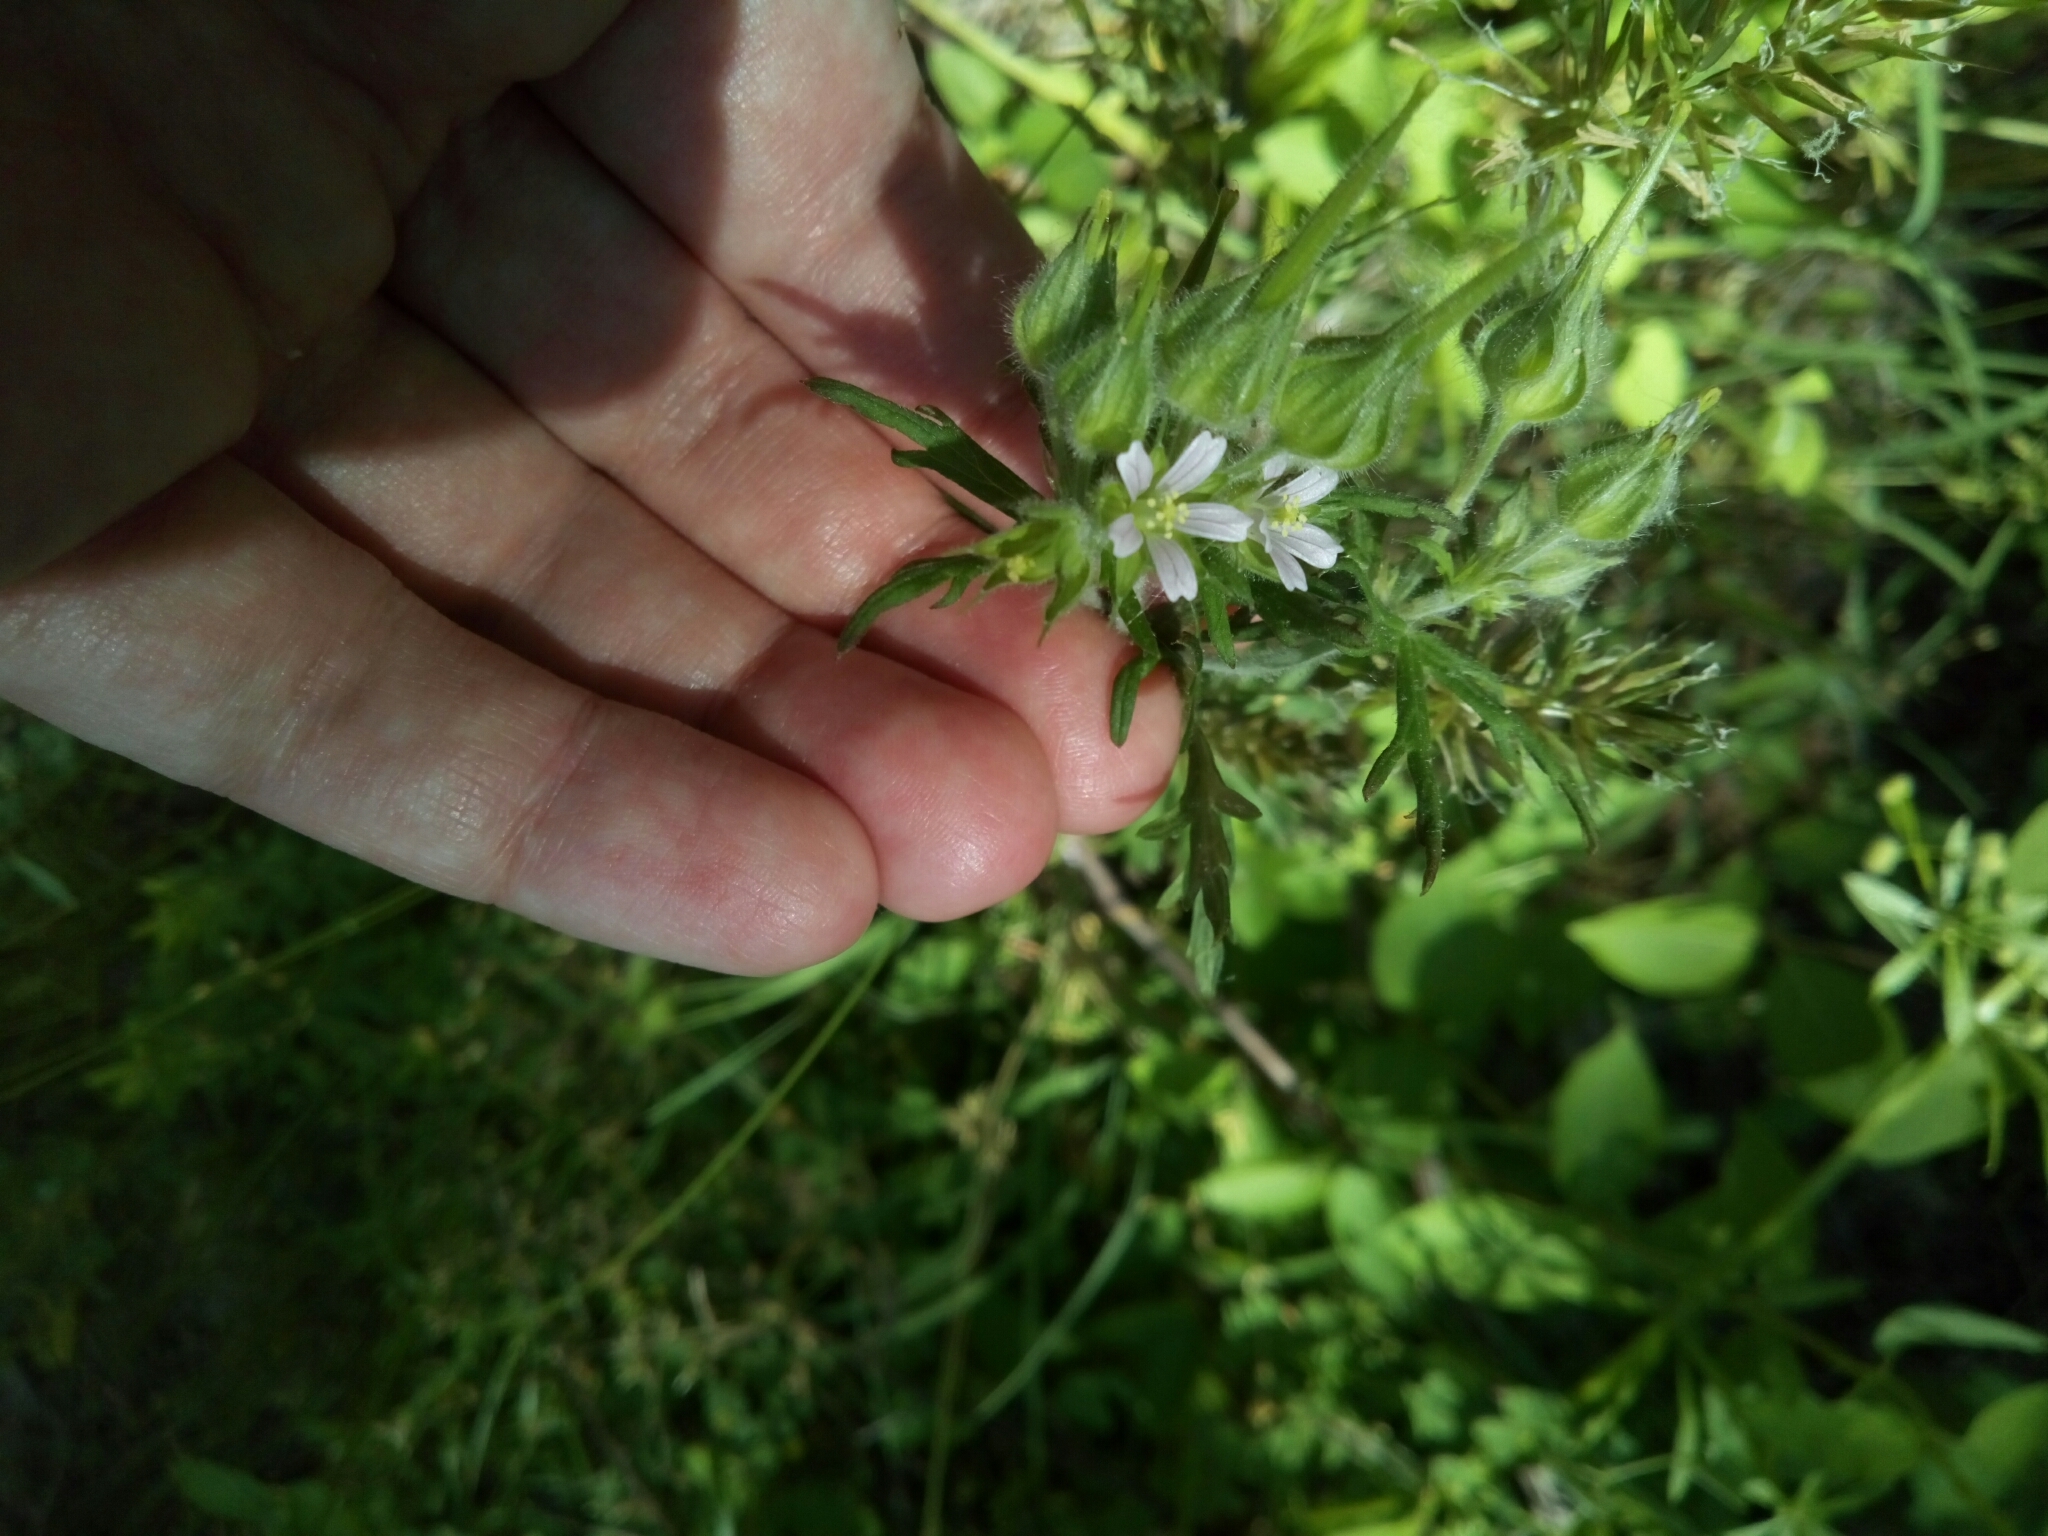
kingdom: Plantae
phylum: Tracheophyta
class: Magnoliopsida
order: Geraniales
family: Geraniaceae
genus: Geranium
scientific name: Geranium carolinianum
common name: Carolina crane's-bill
